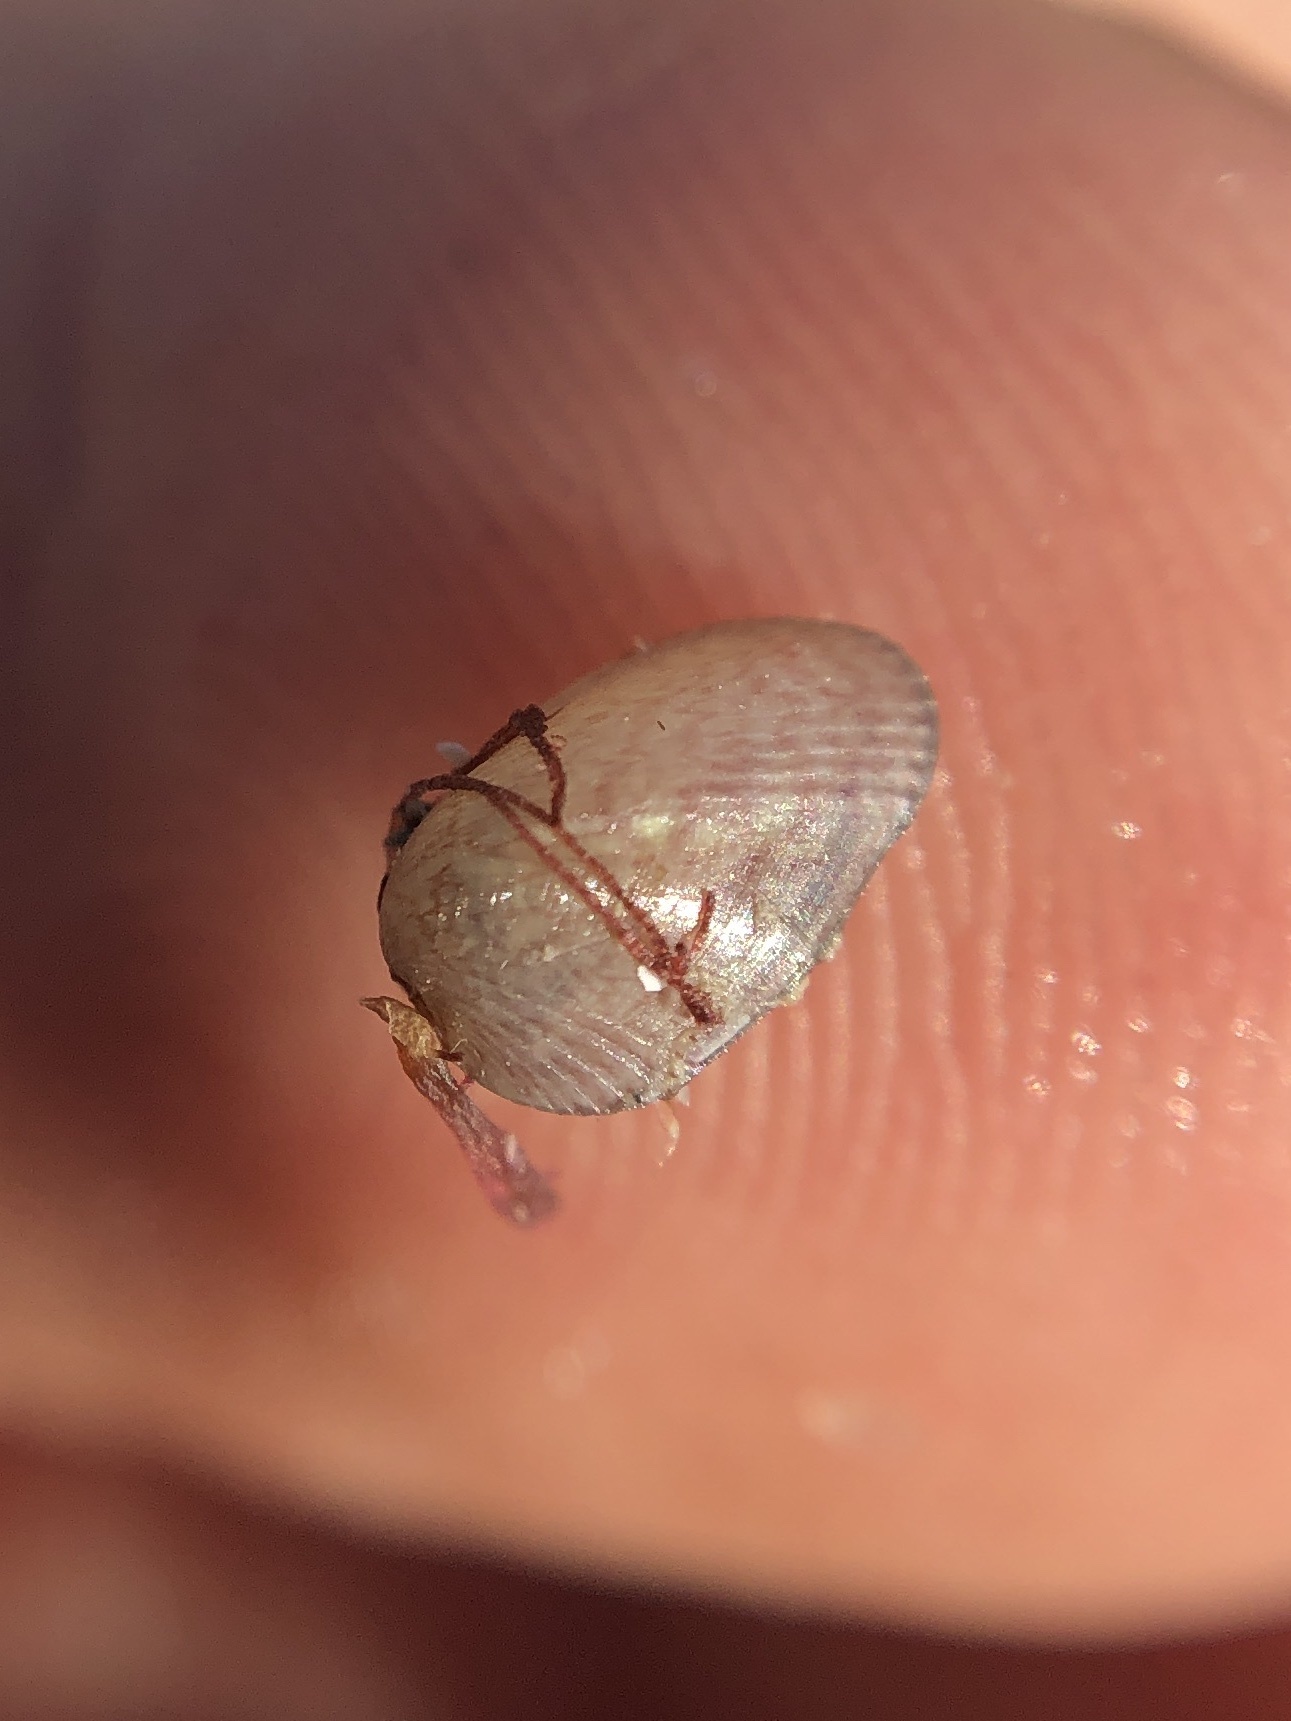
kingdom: Animalia
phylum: Mollusca
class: Bivalvia
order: Mytilida
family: Mytilidae
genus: Musculus
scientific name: Musculus lateralis
